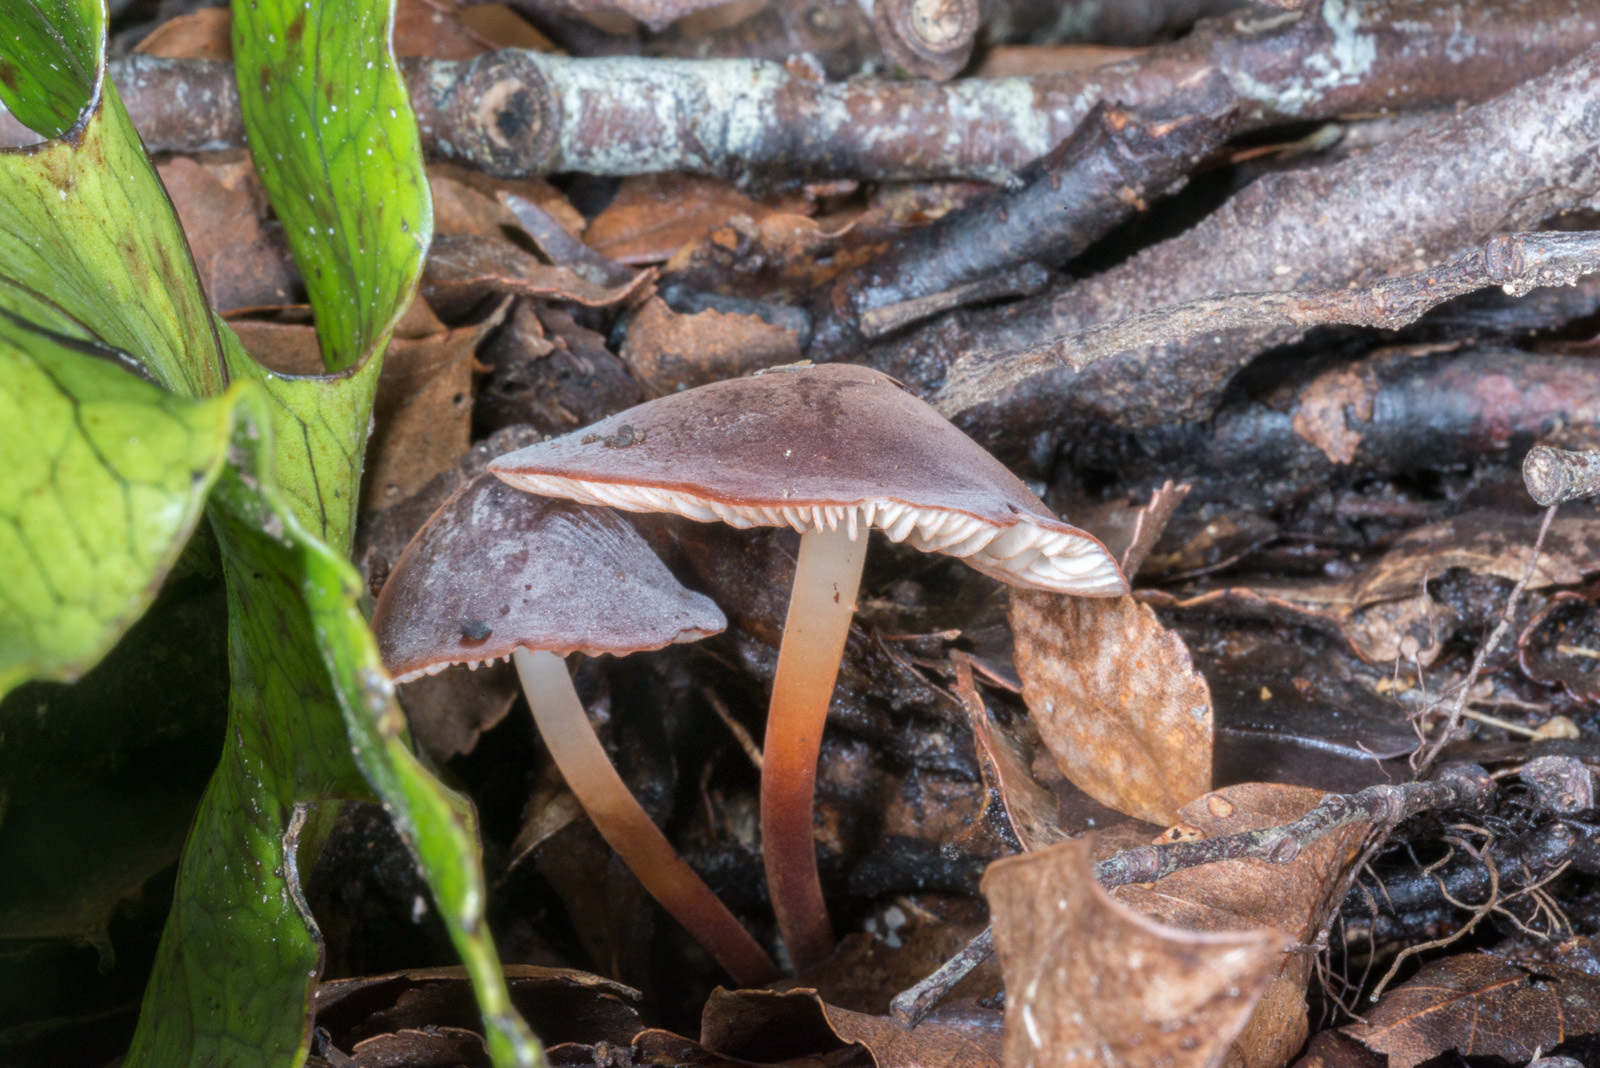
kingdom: Fungi
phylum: Basidiomycota
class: Agaricomycetes
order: Agaricales
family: Marasmiaceae
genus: Marasmius
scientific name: Marasmius elegans
